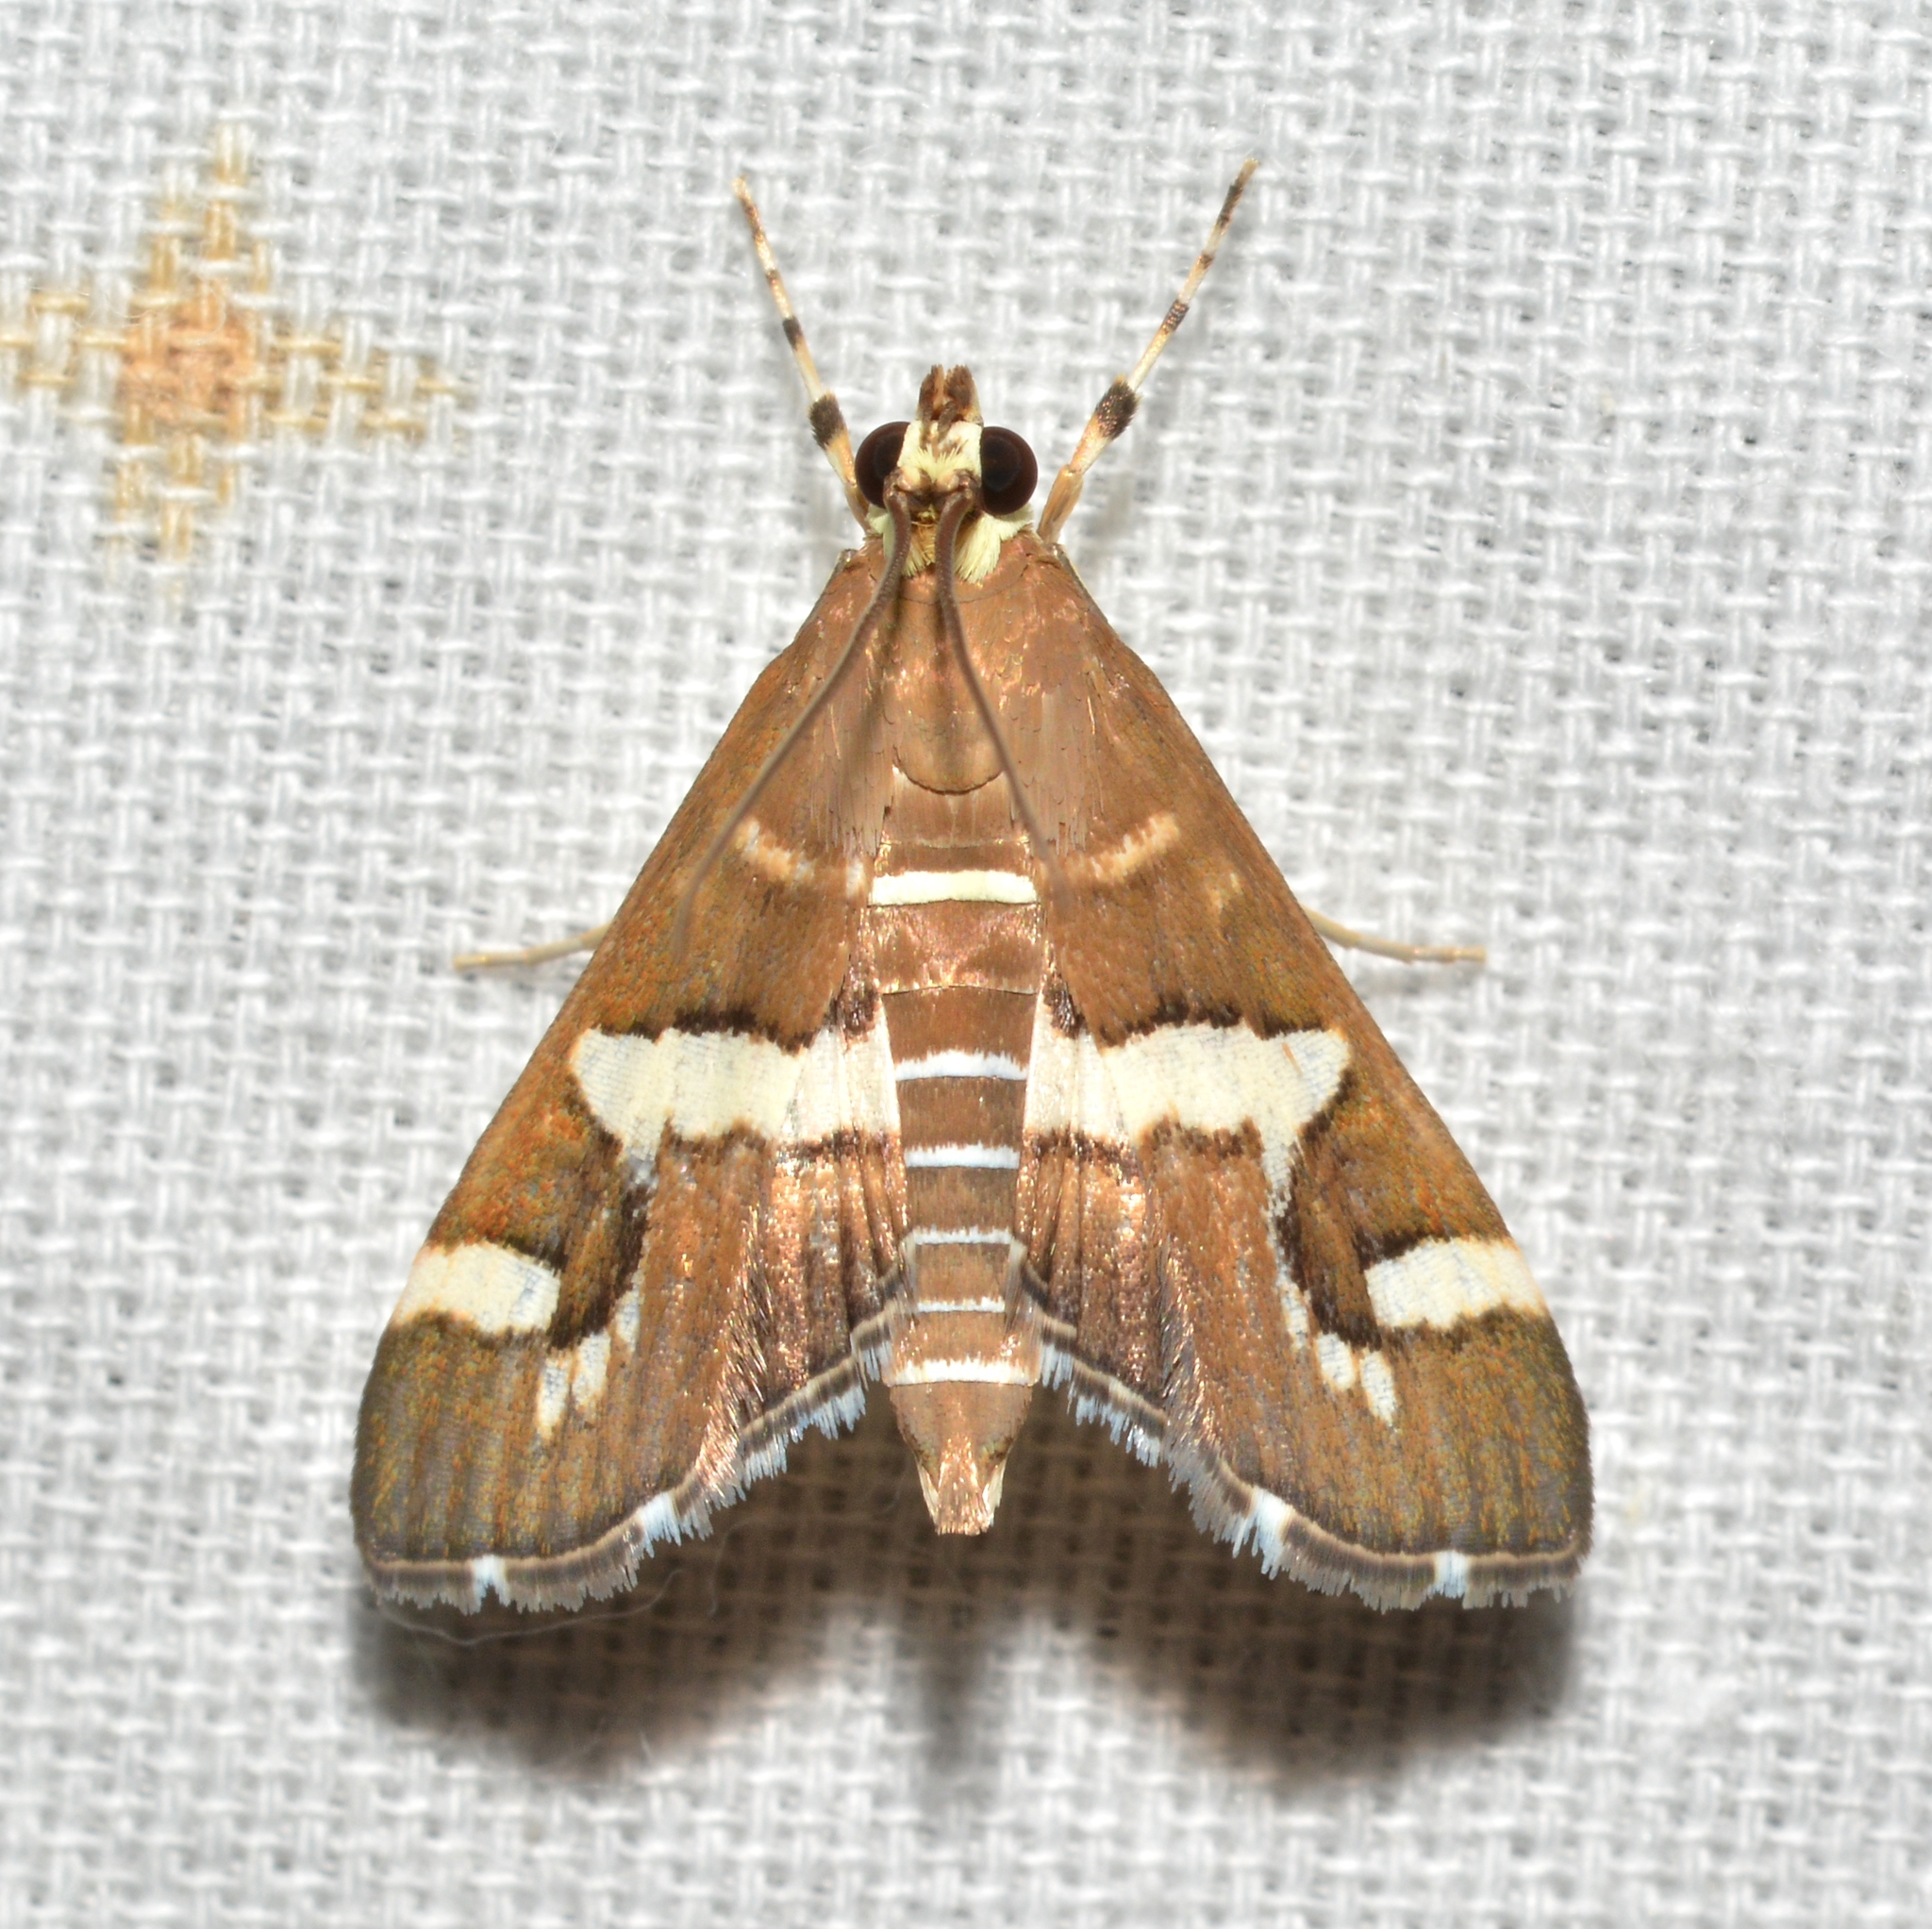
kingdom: Animalia
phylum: Arthropoda
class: Insecta
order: Lepidoptera
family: Crambidae
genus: Spoladea
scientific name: Spoladea recurvalis
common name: Beet webworm moth
